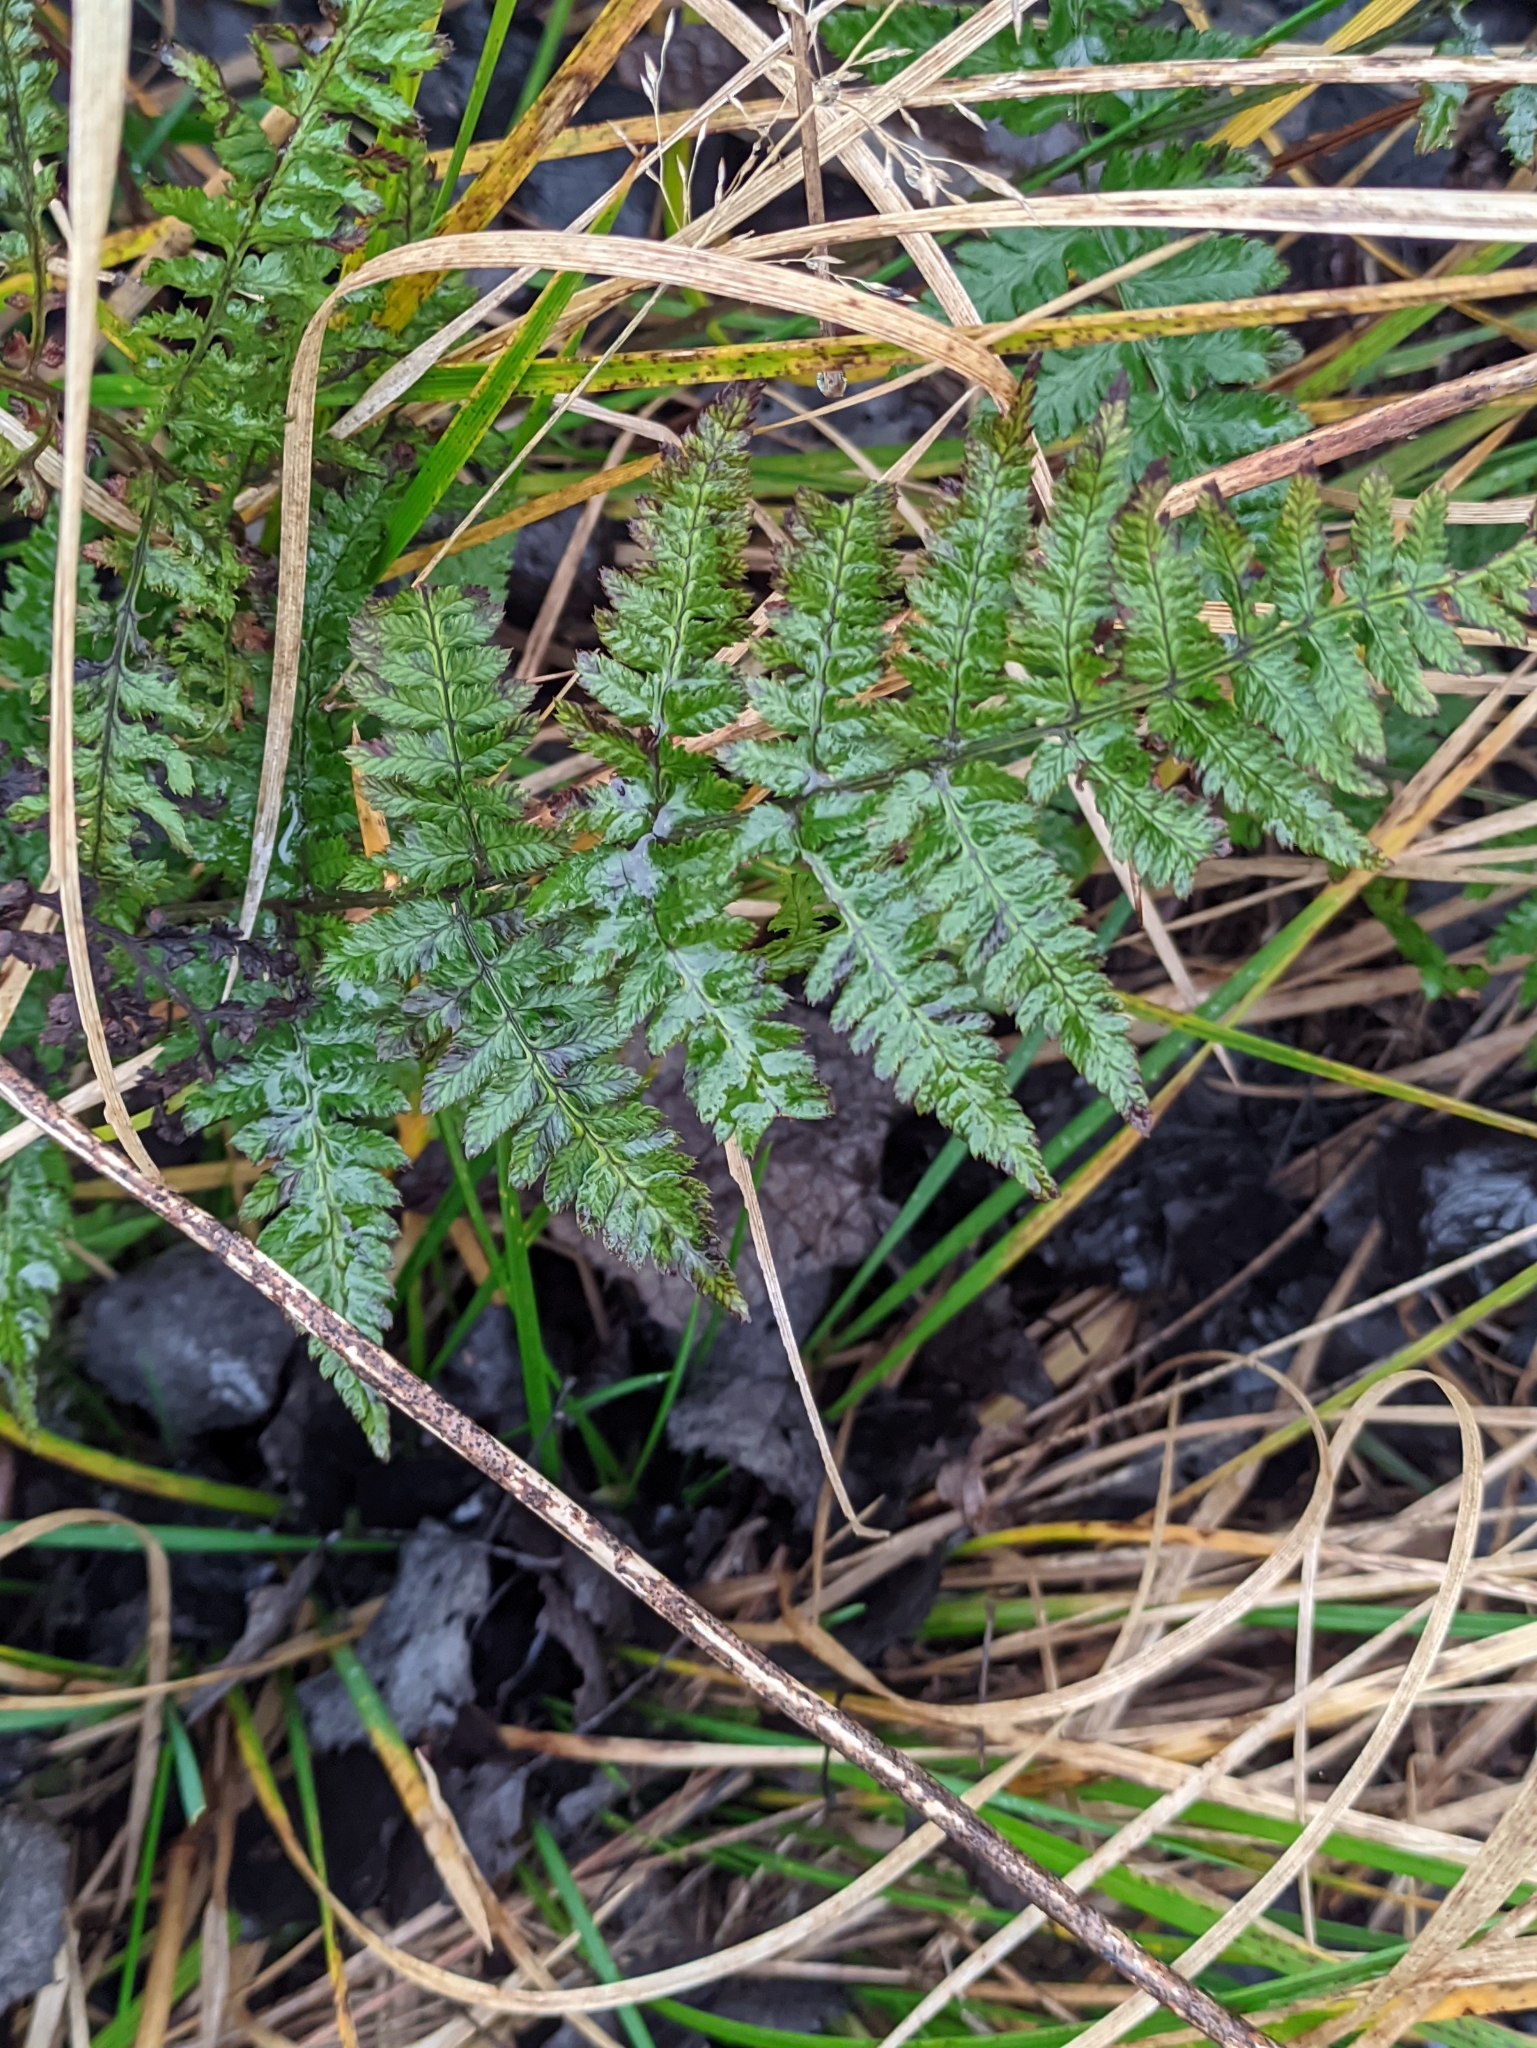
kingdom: Plantae
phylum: Tracheophyta
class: Polypodiopsida
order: Polypodiales
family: Dryopteridaceae
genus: Dryopteris
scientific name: Dryopteris carthusiana
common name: Narrow buckler-fern
